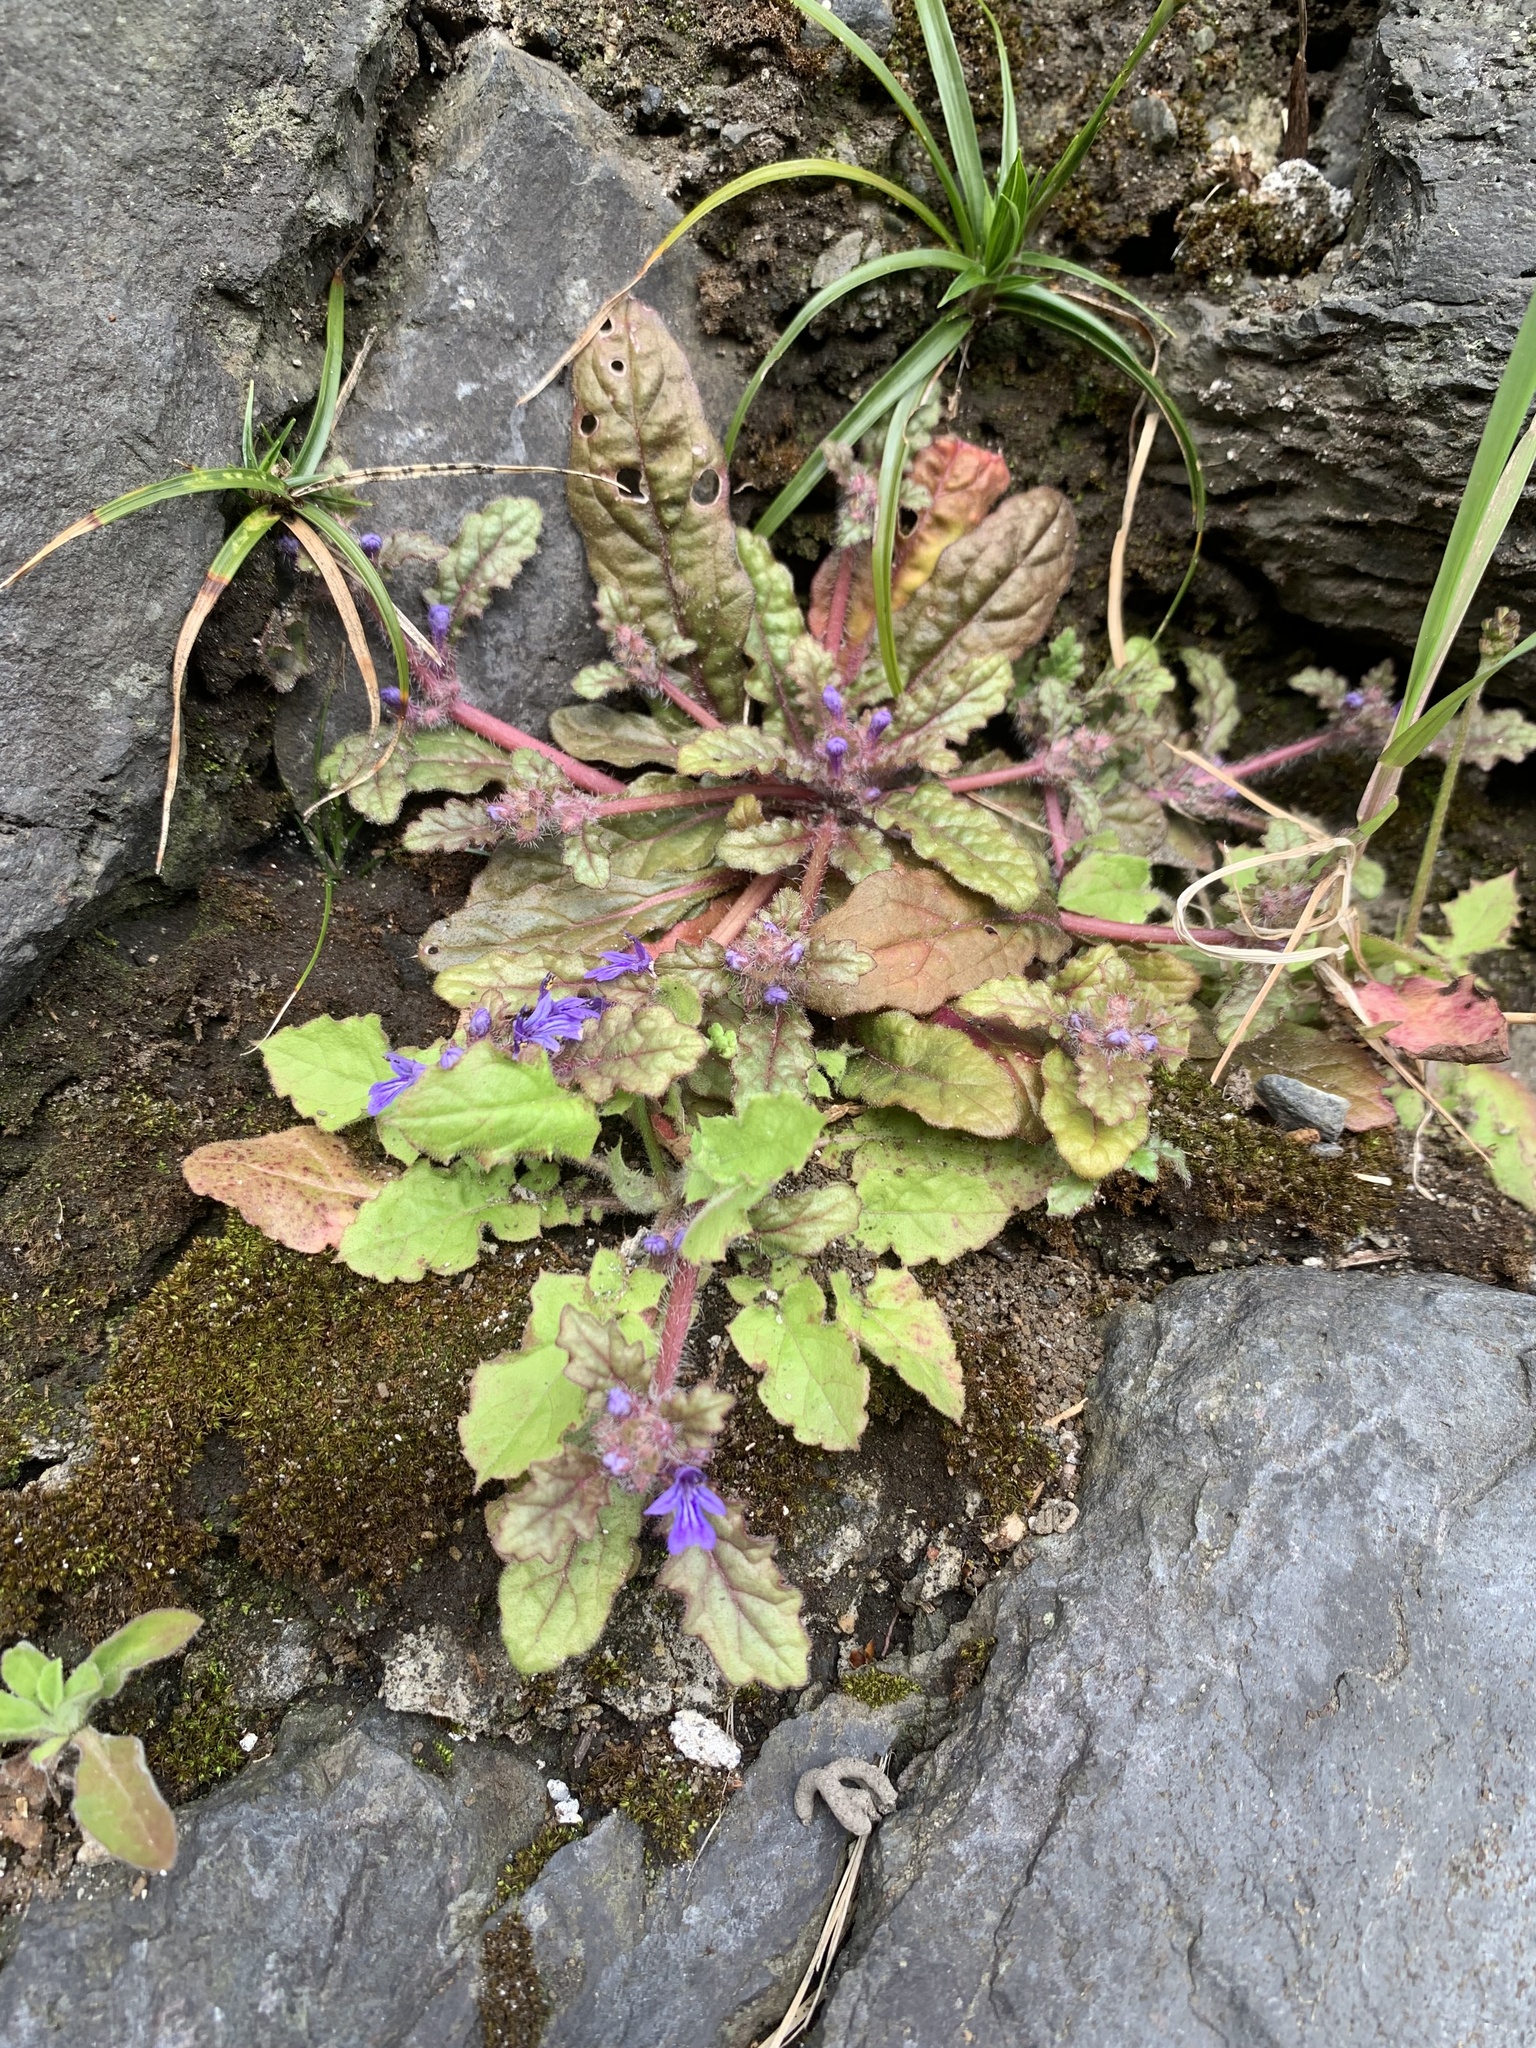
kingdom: Plantae
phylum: Tracheophyta
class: Magnoliopsida
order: Lamiales
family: Lamiaceae
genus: Ajuga
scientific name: Ajuga decumbens
